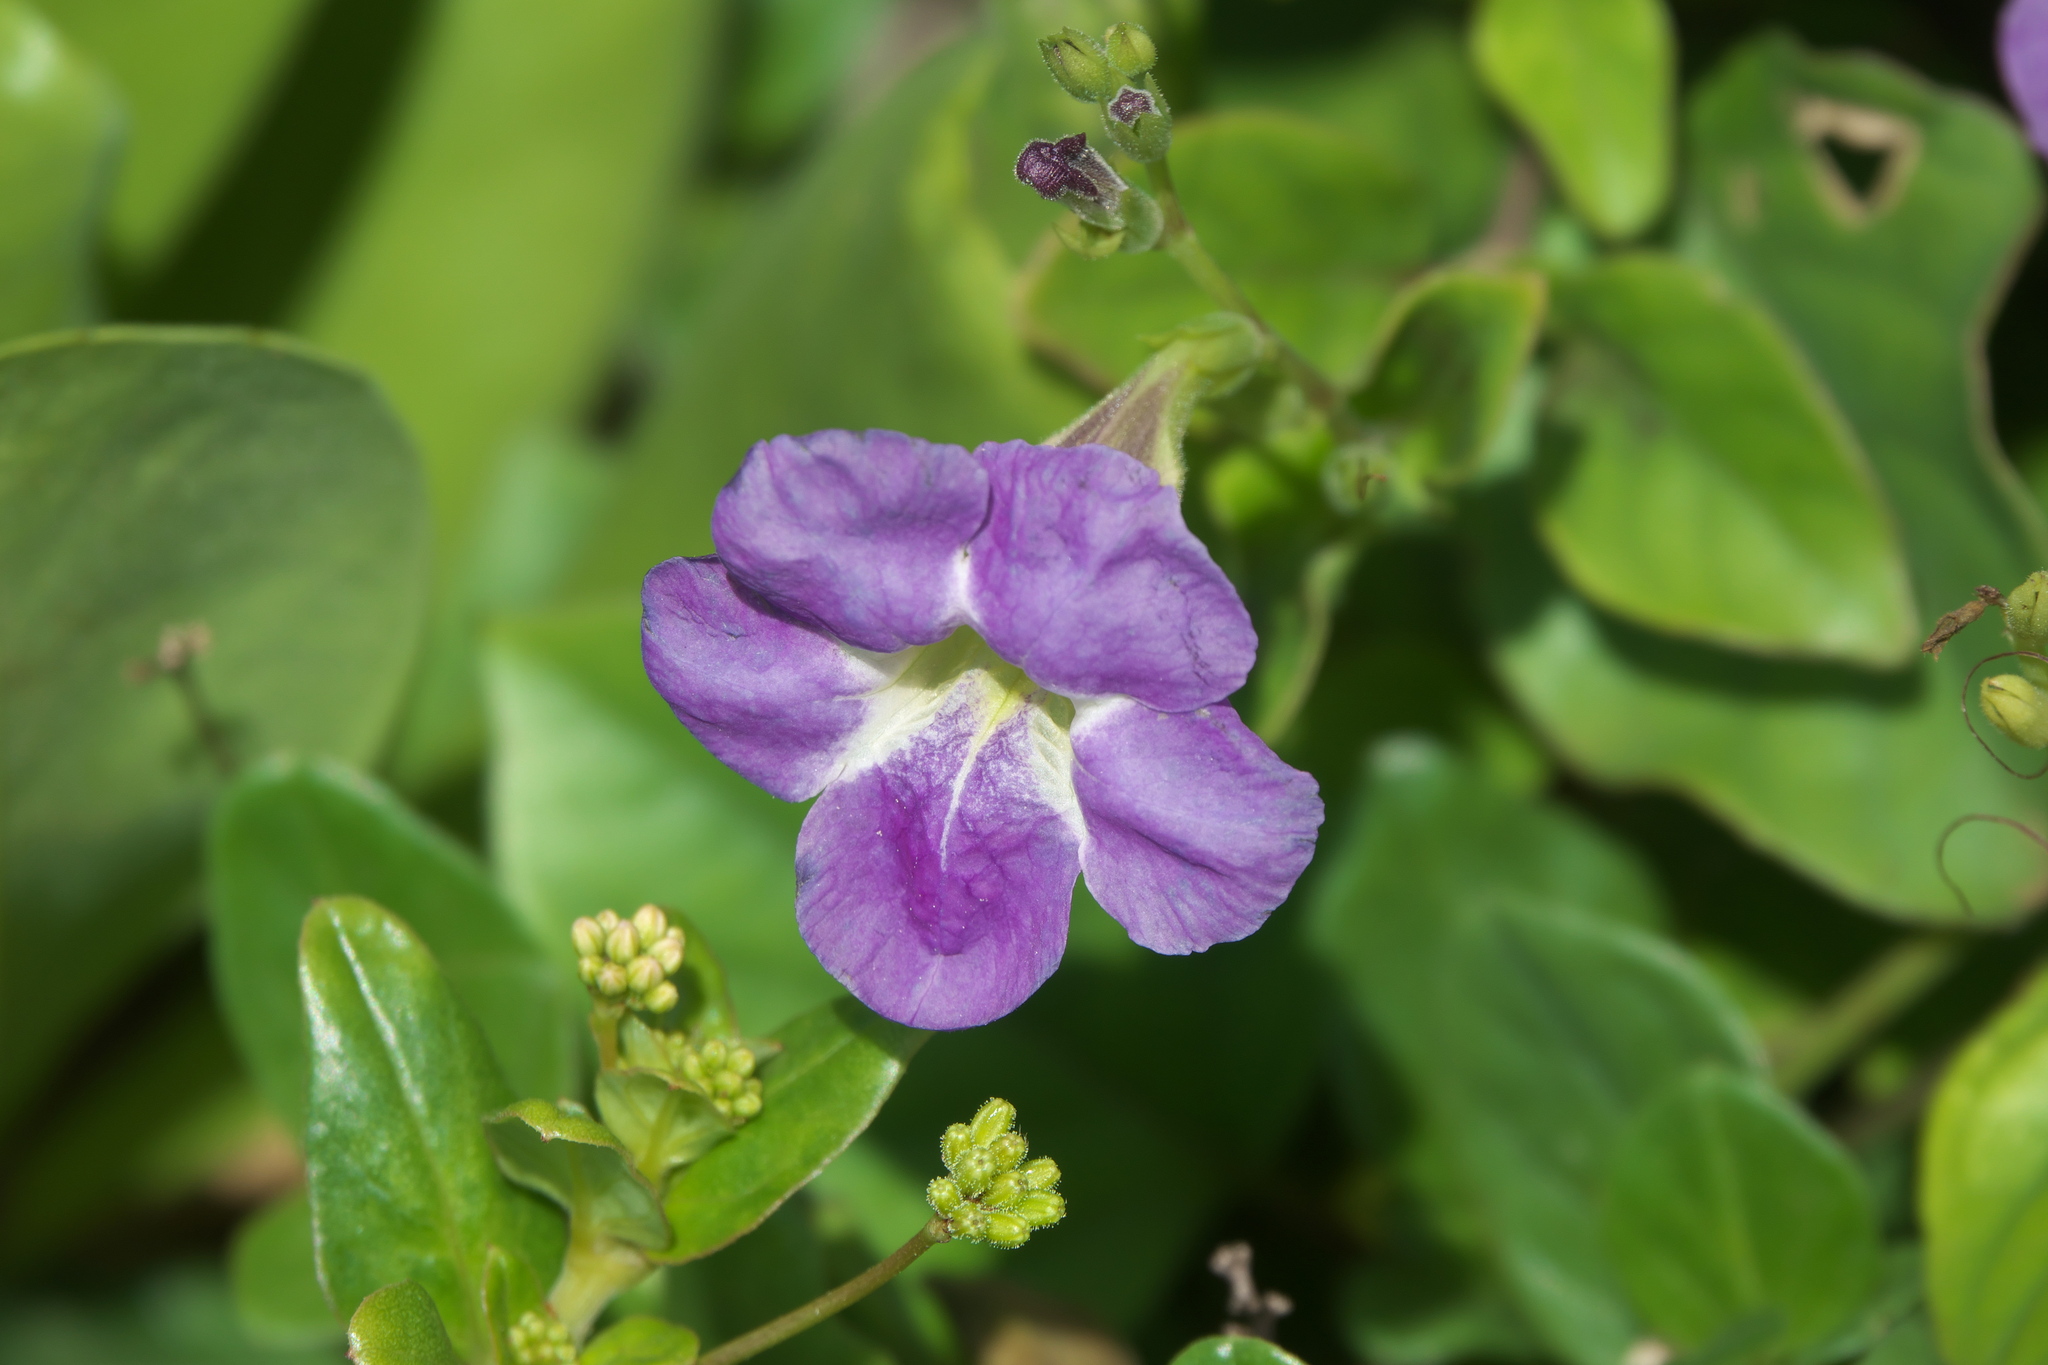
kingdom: Plantae
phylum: Tracheophyta
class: Magnoliopsida
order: Lamiales
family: Acanthaceae
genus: Asystasia
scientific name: Asystasia gangetica
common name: Chinese violet
